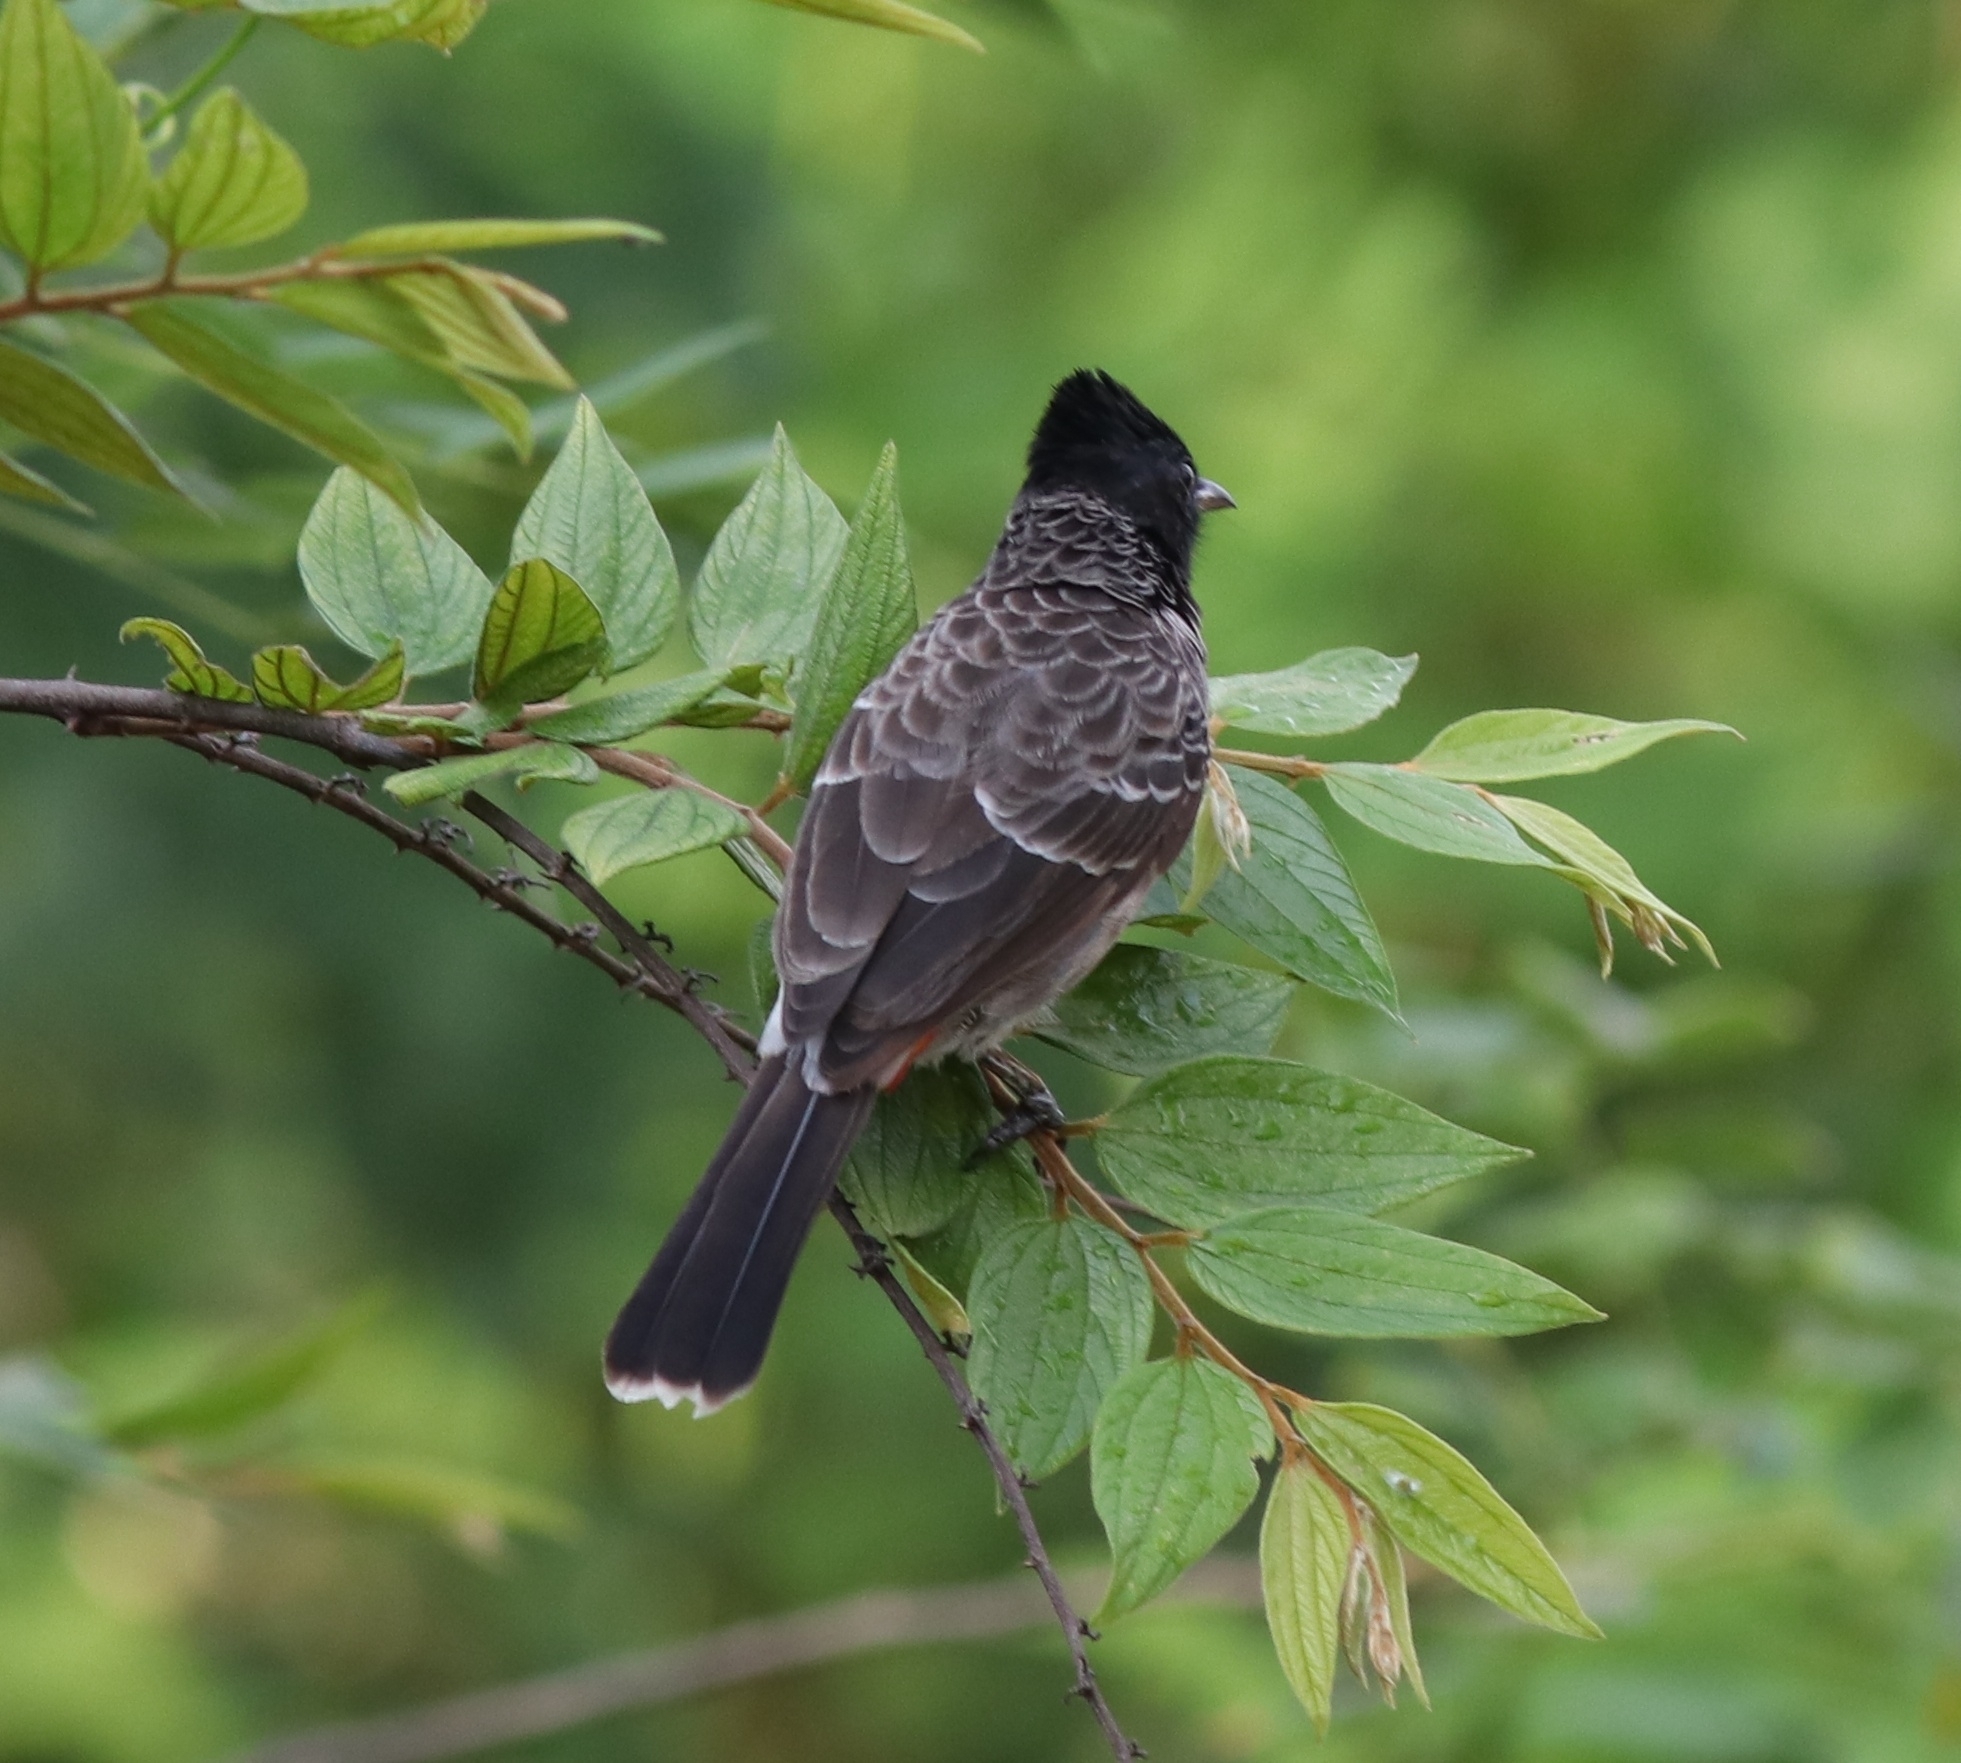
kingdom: Animalia
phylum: Chordata
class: Aves
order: Passeriformes
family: Pycnonotidae
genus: Pycnonotus
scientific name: Pycnonotus cafer
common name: Red-vented bulbul
